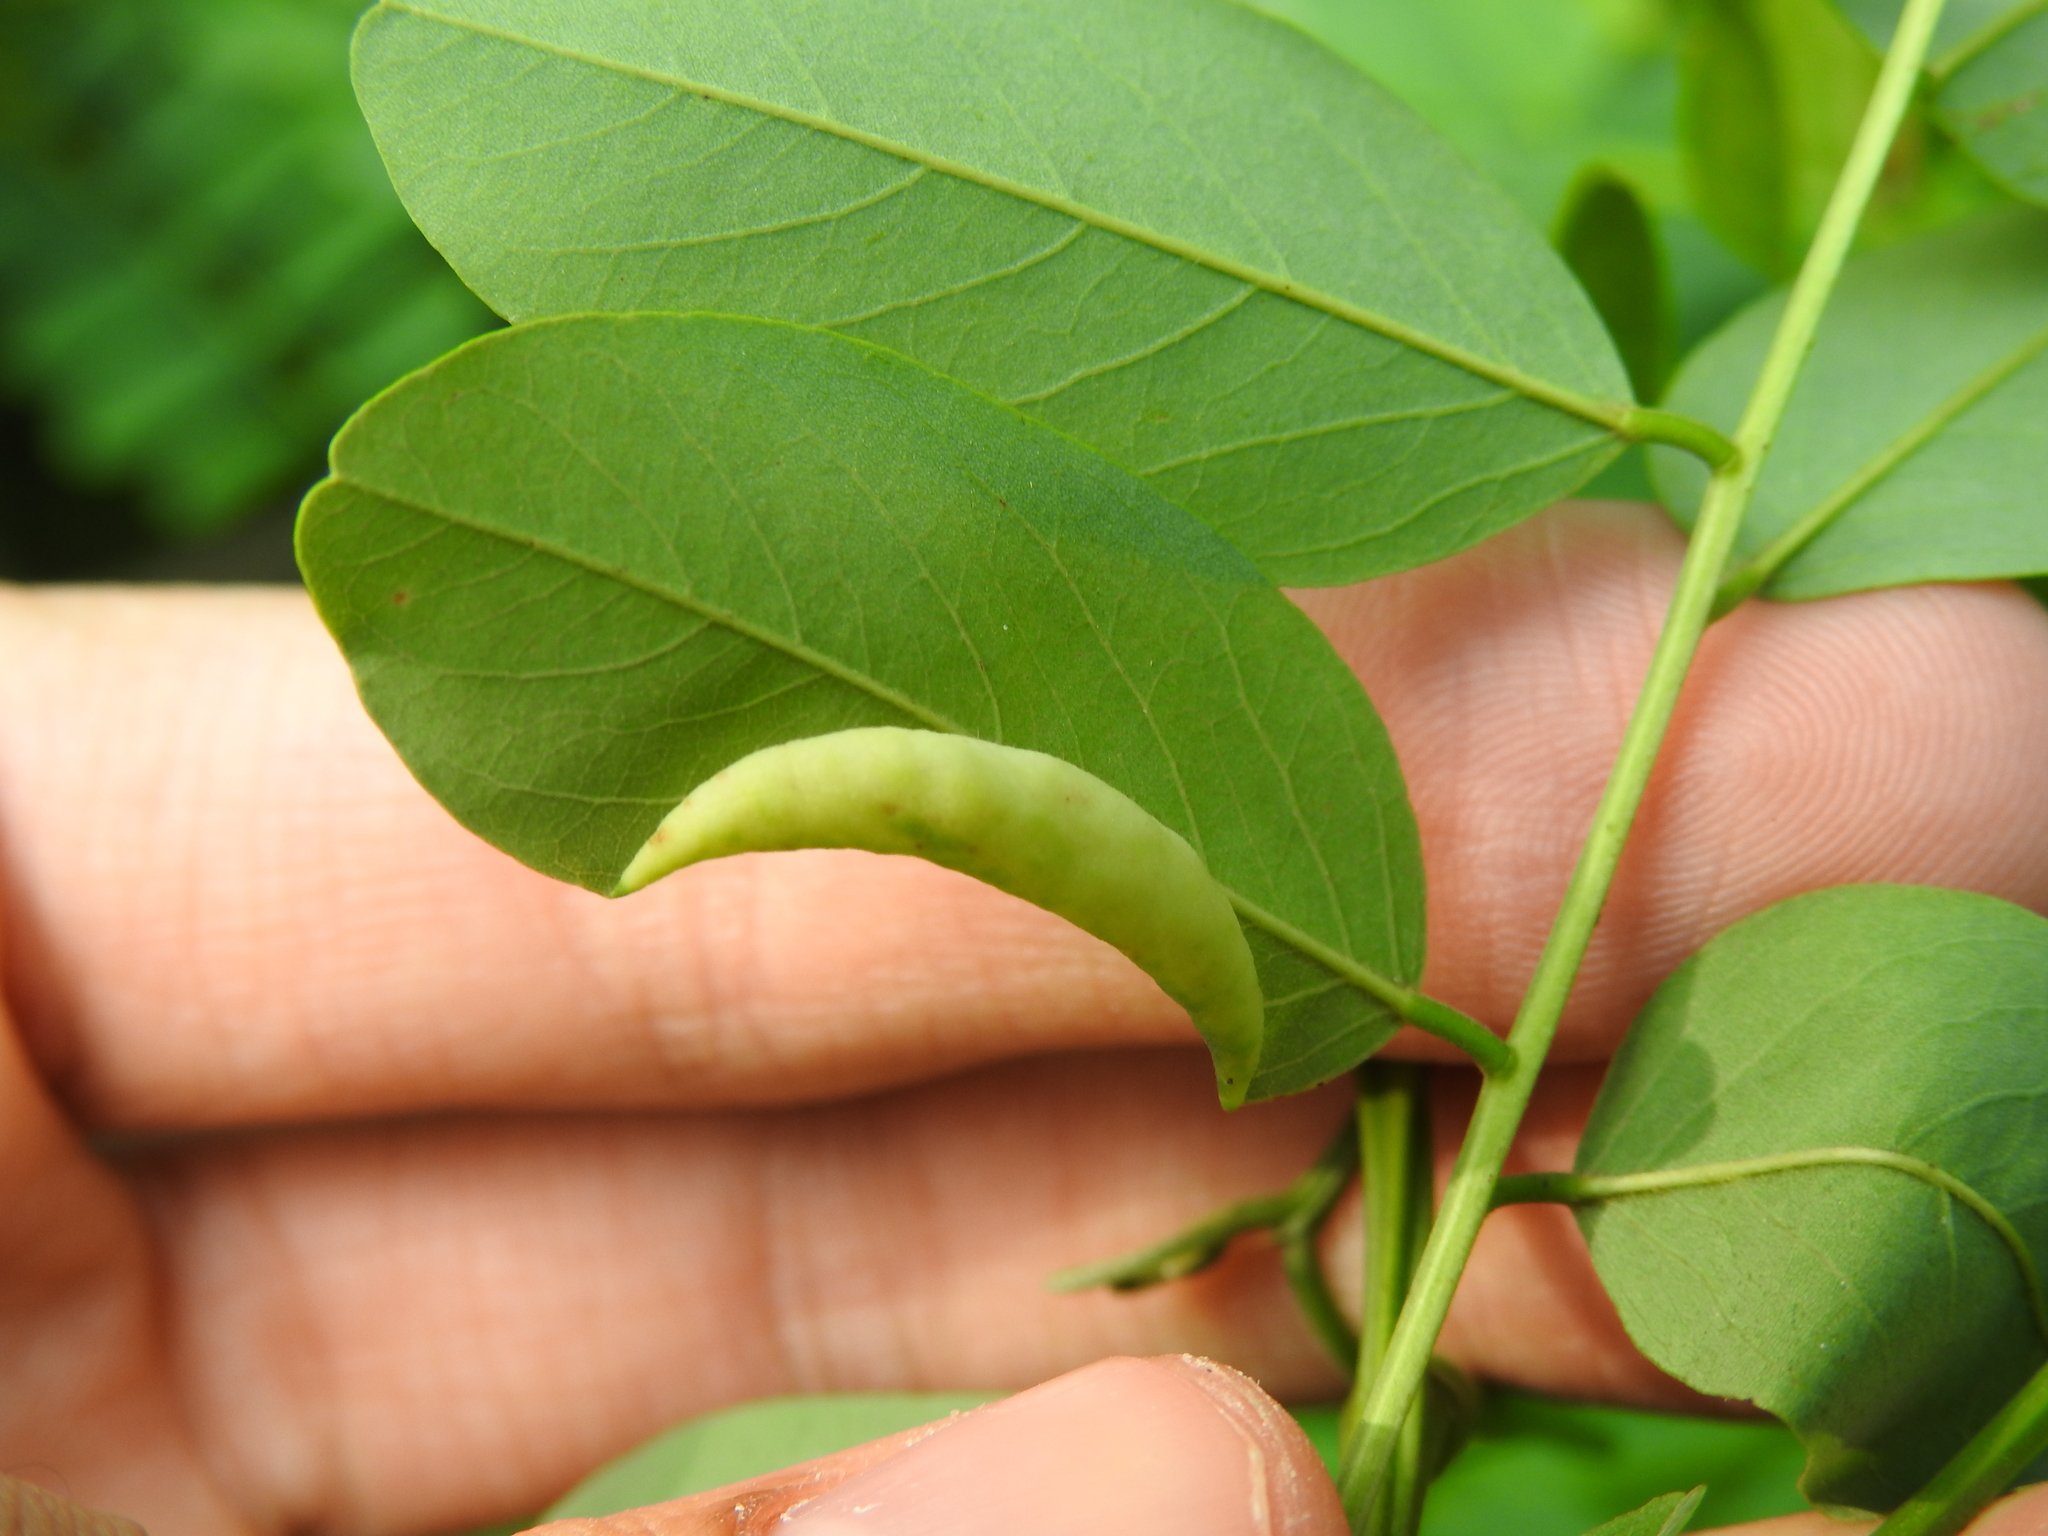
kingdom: Animalia
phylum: Arthropoda
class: Insecta
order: Diptera
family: Cecidomyiidae
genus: Obolodiplosis
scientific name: Obolodiplosis robiniae
